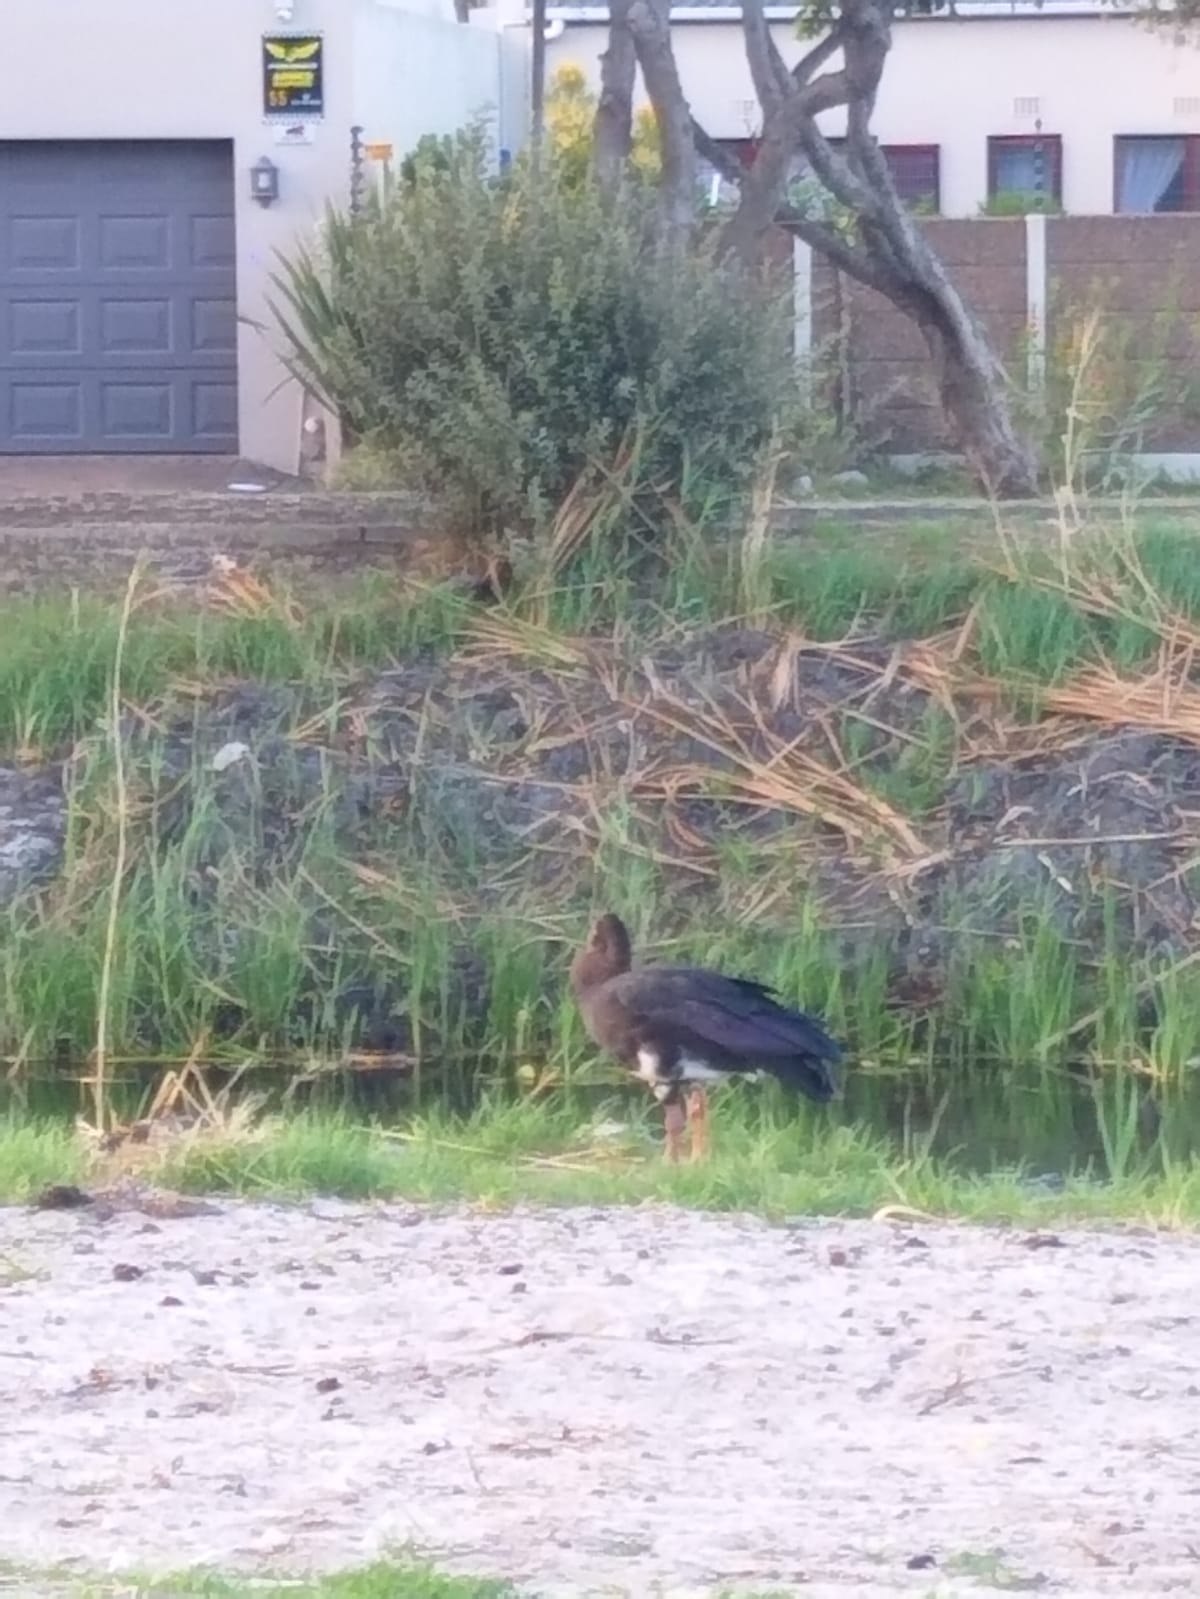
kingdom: Animalia
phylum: Chordata
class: Aves
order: Anseriformes
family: Anatidae
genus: Plectropterus
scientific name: Plectropterus gambensis
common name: Spur-winged goose
